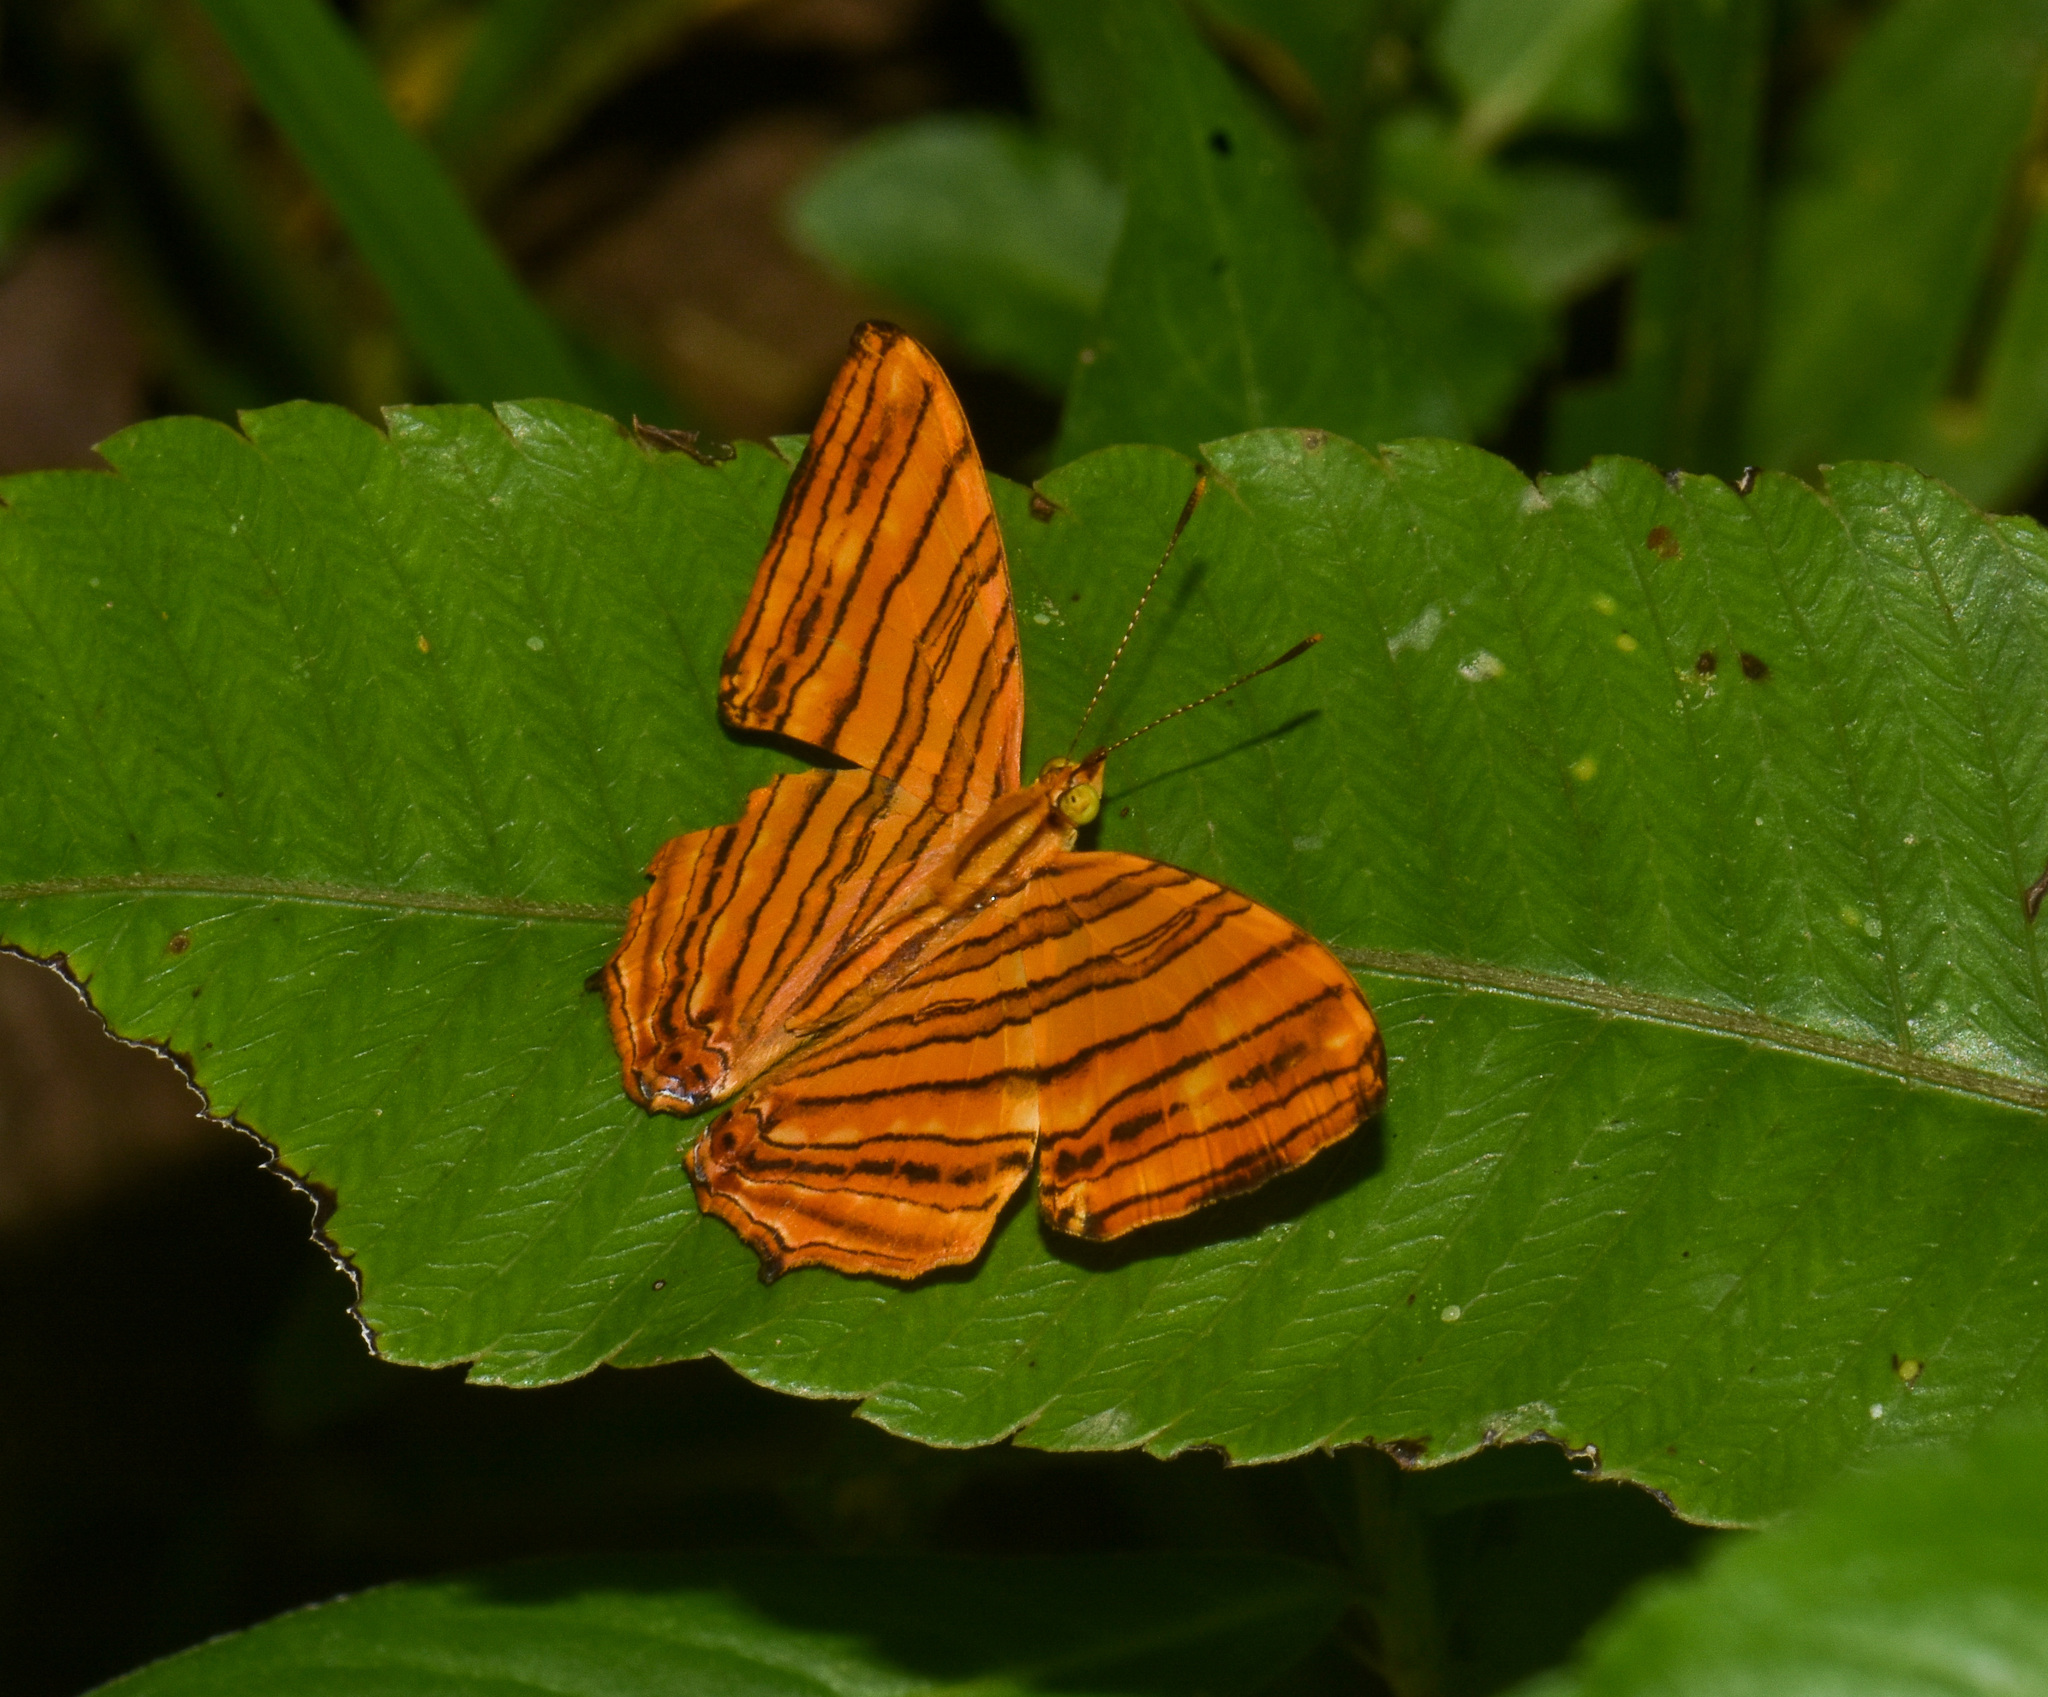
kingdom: Animalia
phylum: Arthropoda
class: Insecta
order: Lepidoptera
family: Nymphalidae
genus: Chersonesia
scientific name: Chersonesia risa
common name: Common maplet
